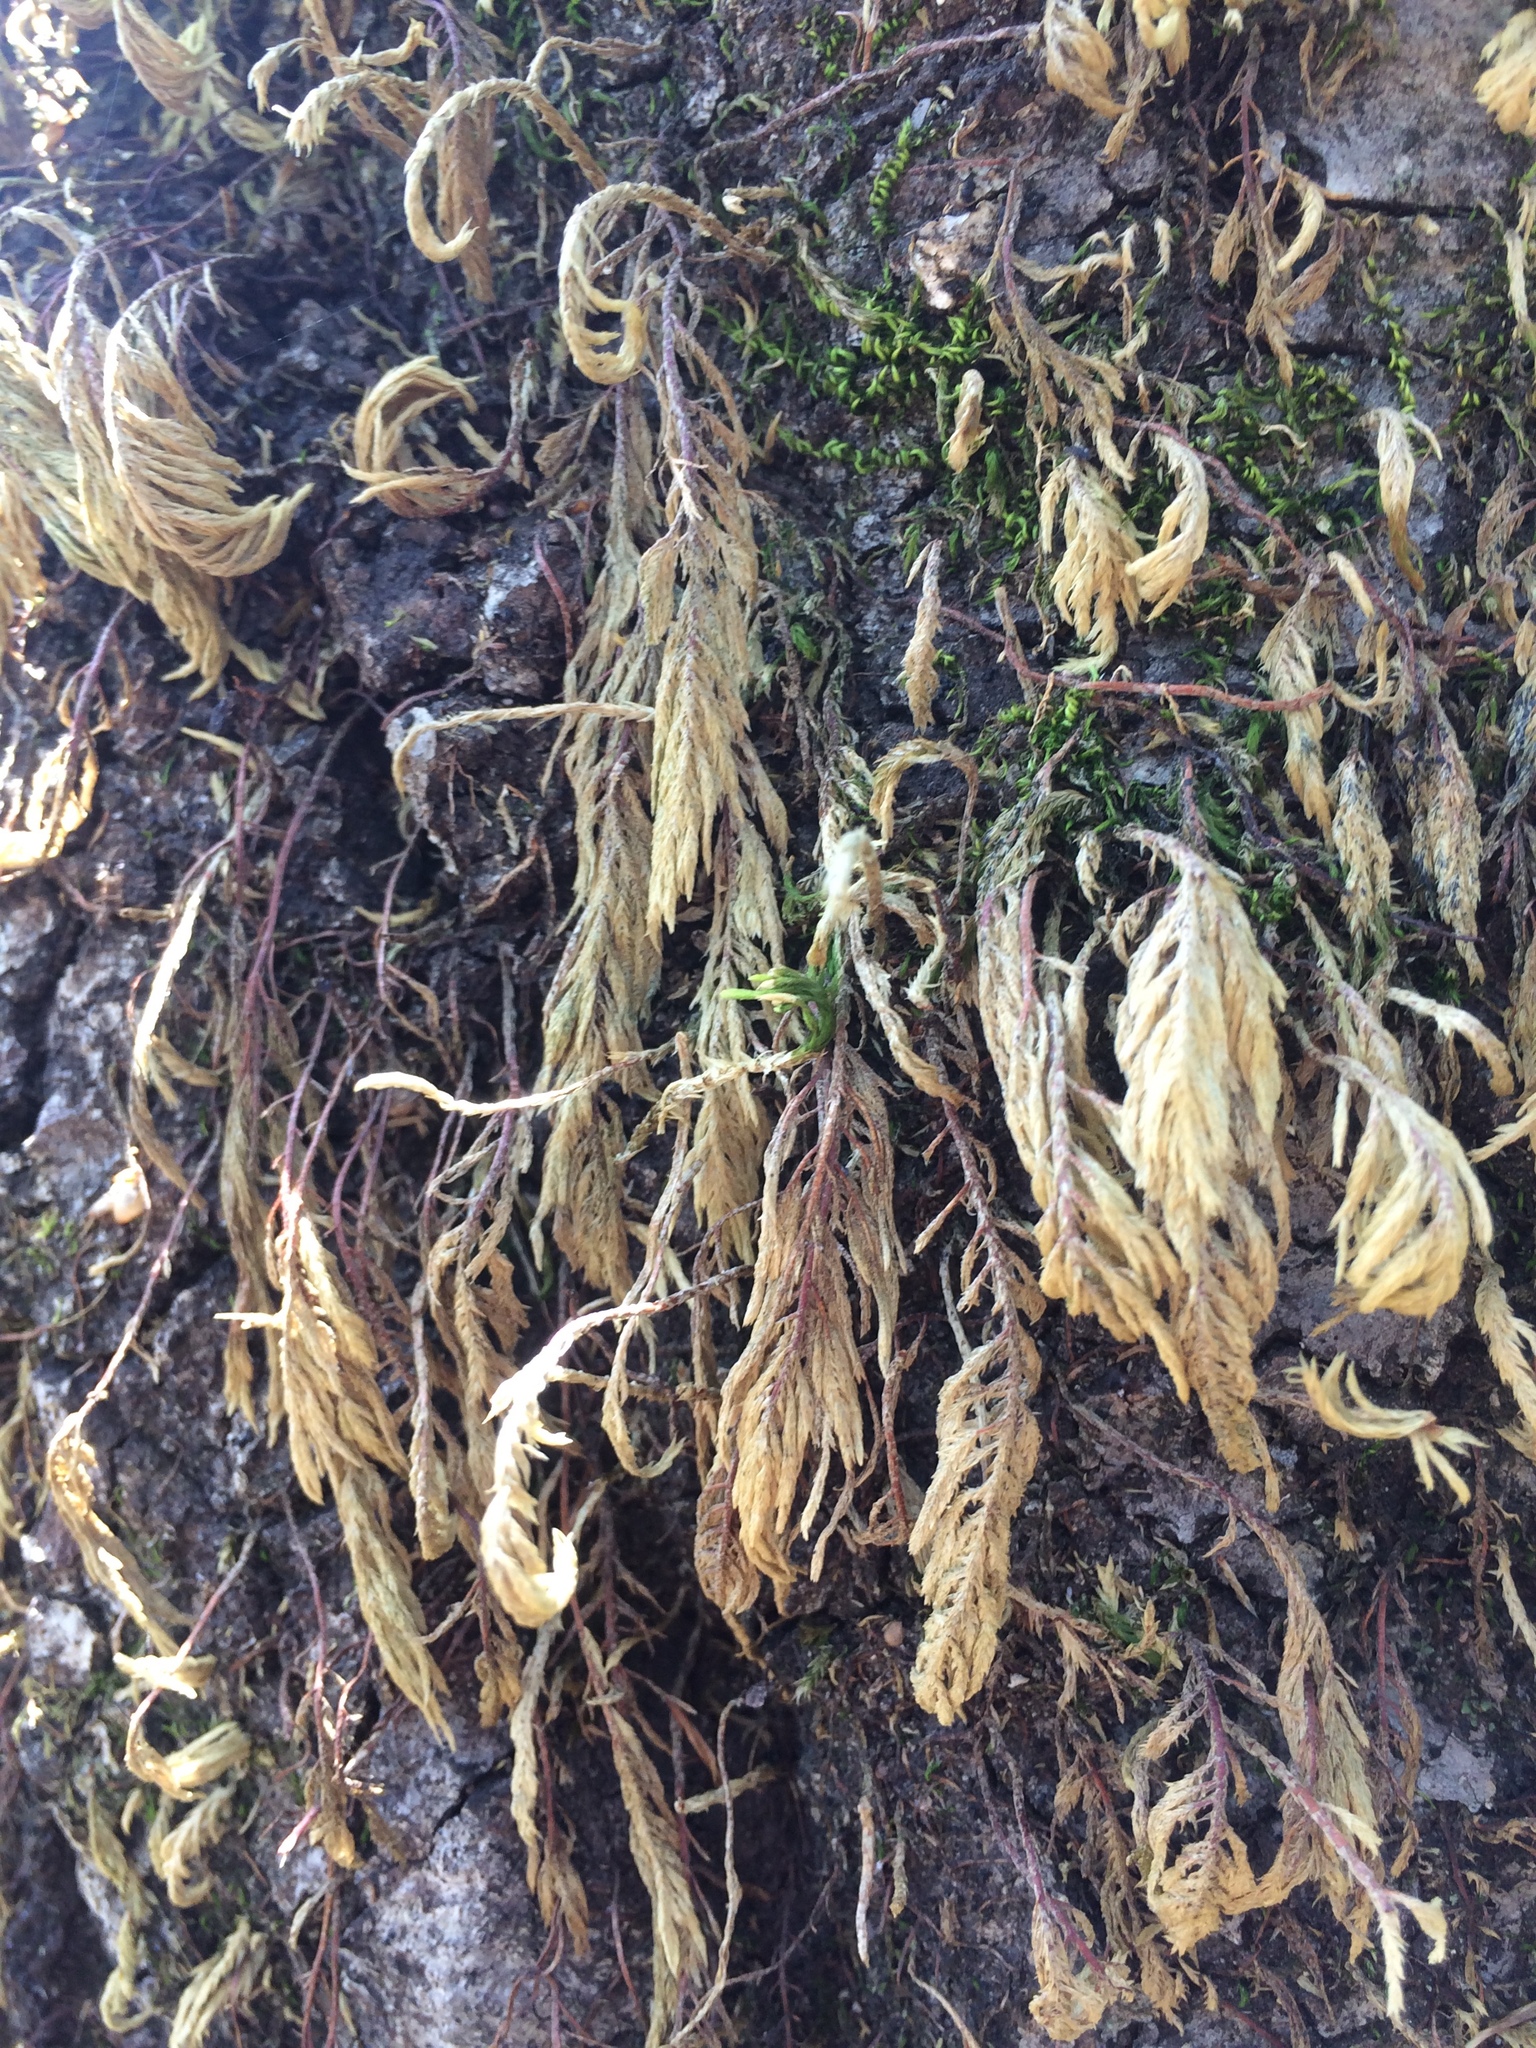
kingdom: Plantae
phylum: Bryophyta
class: Bryopsida
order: Hypnales
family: Cryphaeaceae
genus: Dendroalsia
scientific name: Dendroalsia abietina
